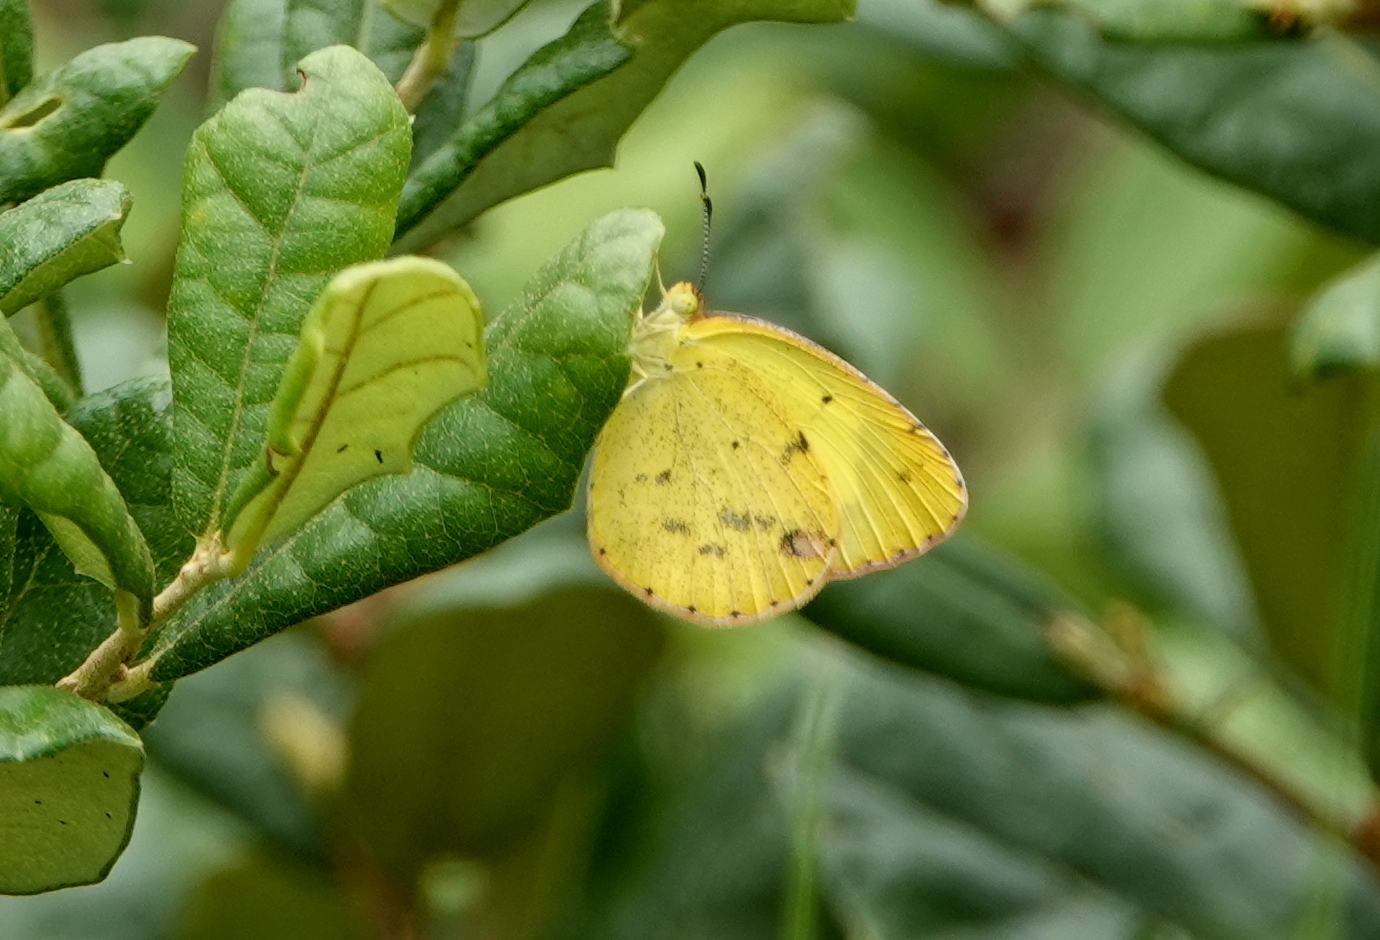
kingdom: Animalia
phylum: Arthropoda
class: Insecta
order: Lepidoptera
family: Pieridae
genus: Pyrisitia
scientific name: Pyrisitia lisa
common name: Little yellow
